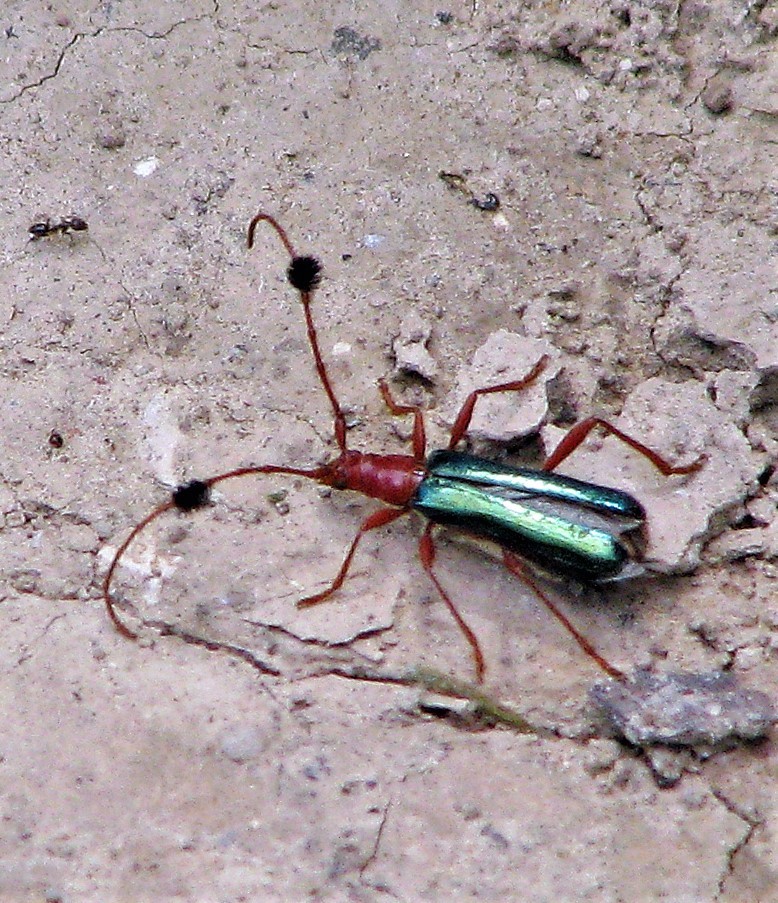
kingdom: Animalia
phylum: Arthropoda
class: Insecta
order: Coleoptera
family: Cerambycidae
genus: Paromoeocerus
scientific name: Paromoeocerus barbicornis
